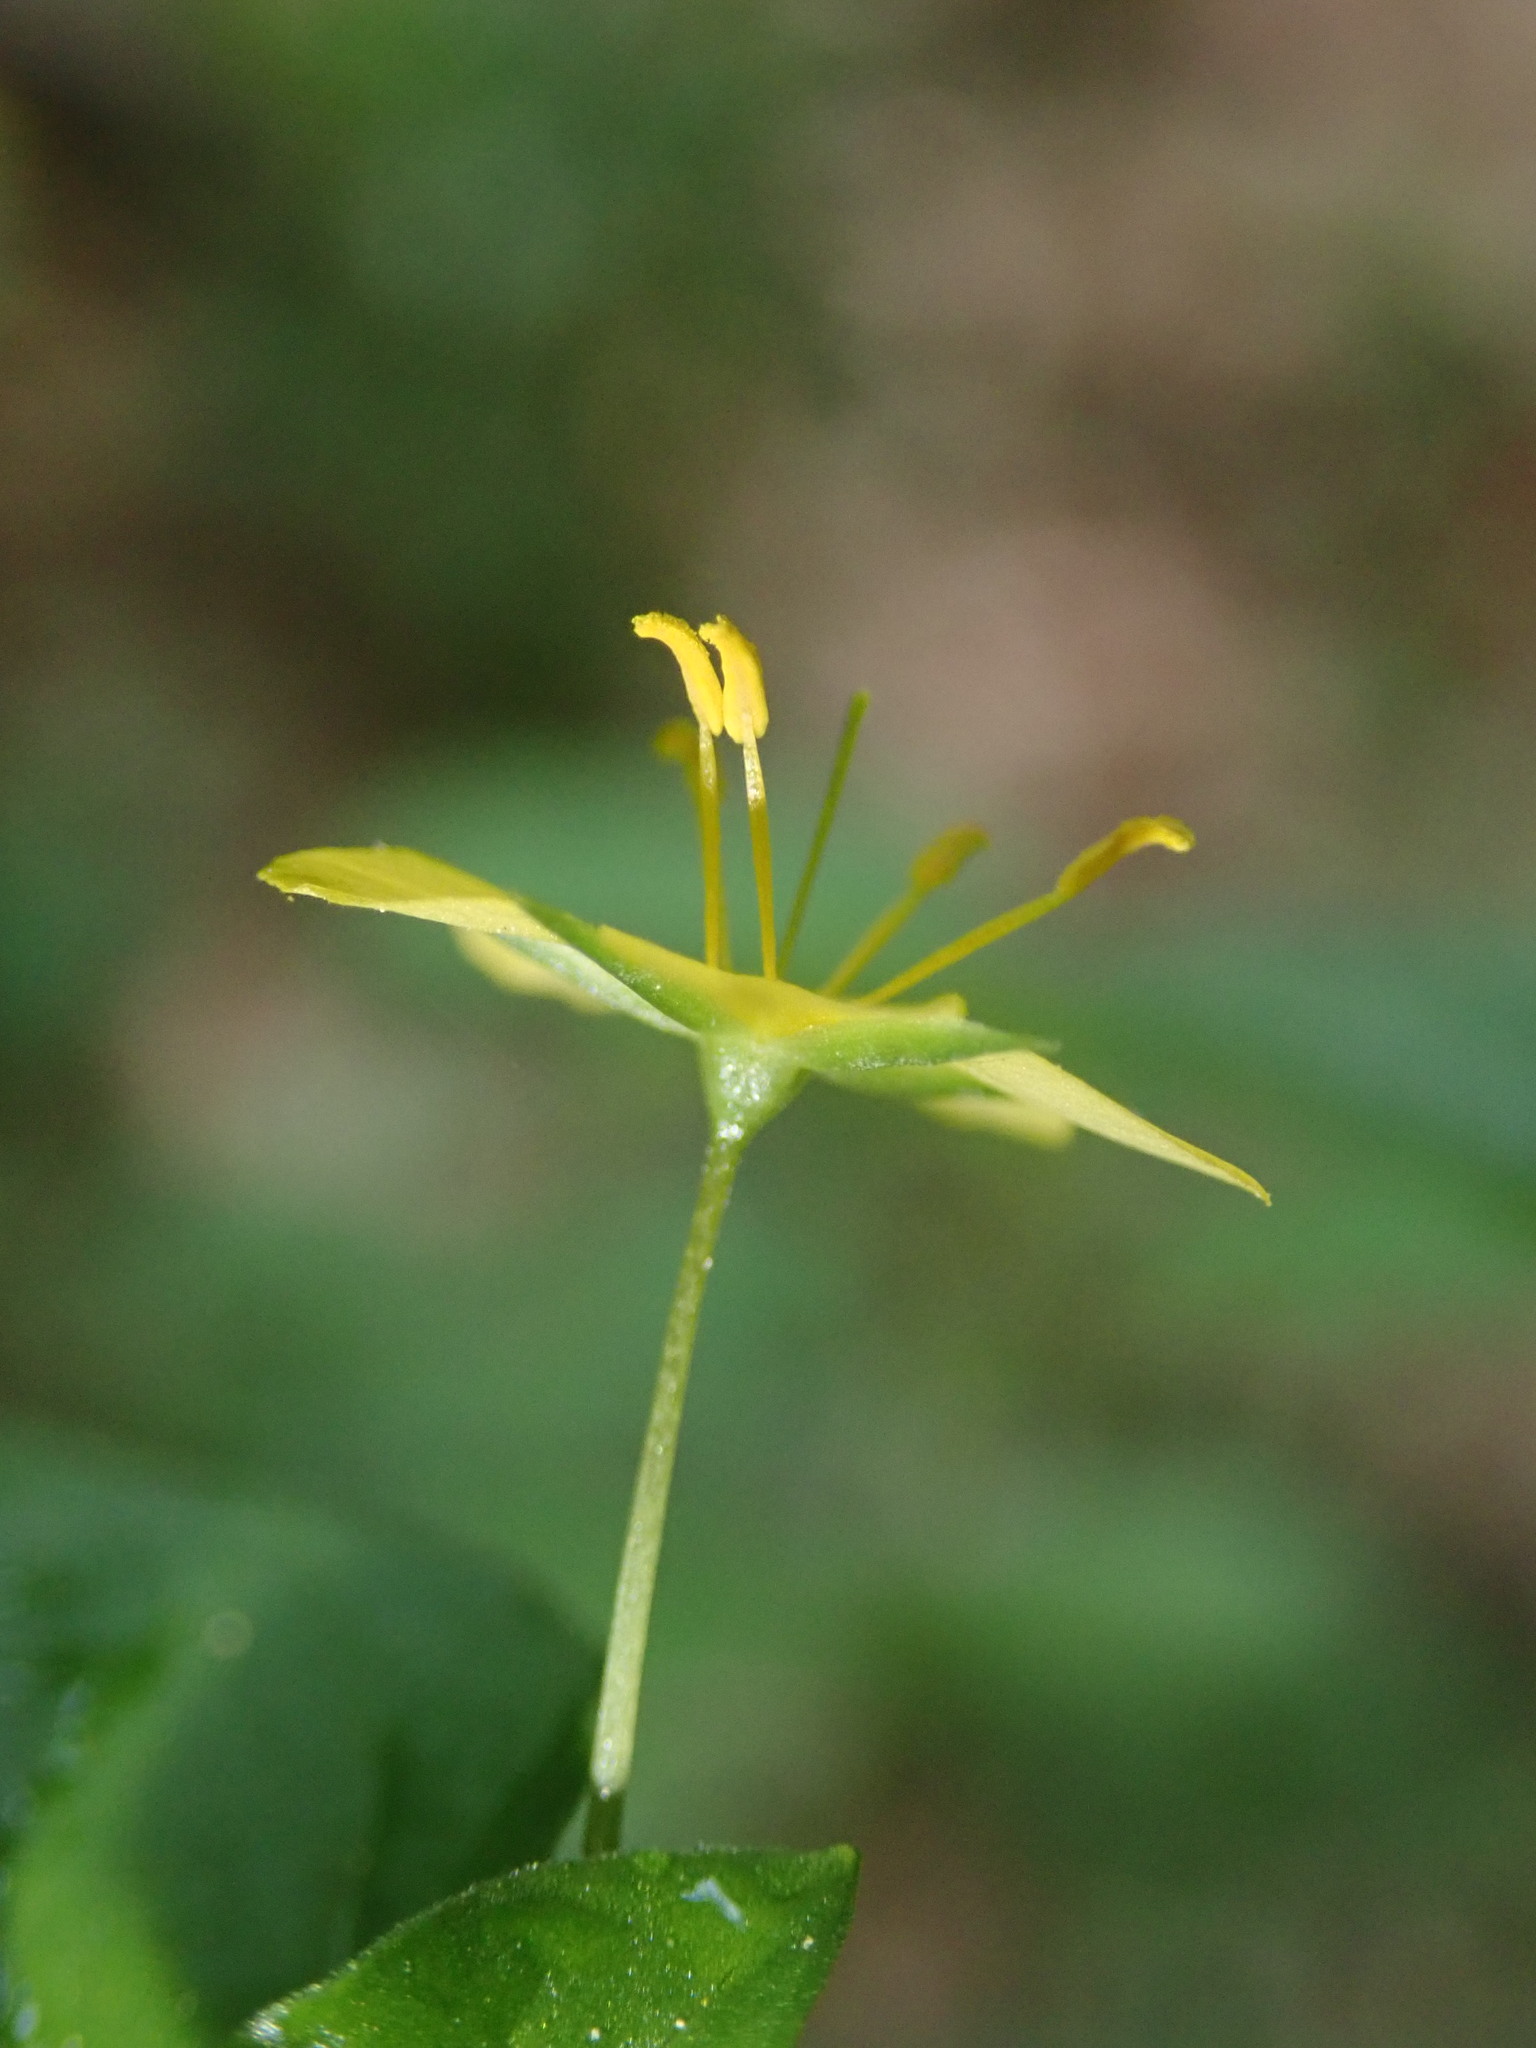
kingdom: Plantae
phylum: Tracheophyta
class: Magnoliopsida
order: Ericales
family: Primulaceae
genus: Lysimachia
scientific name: Lysimachia nemorum
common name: Yellow pimpernel
